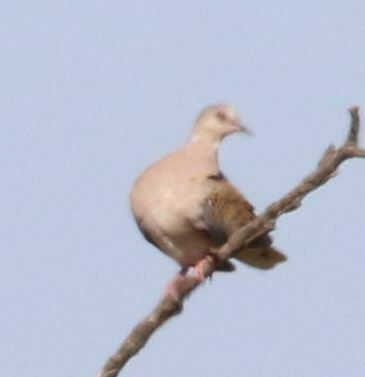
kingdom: Animalia
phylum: Chordata
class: Aves
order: Columbiformes
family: Columbidae
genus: Streptopelia
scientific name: Streptopelia turtur
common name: European turtle dove
